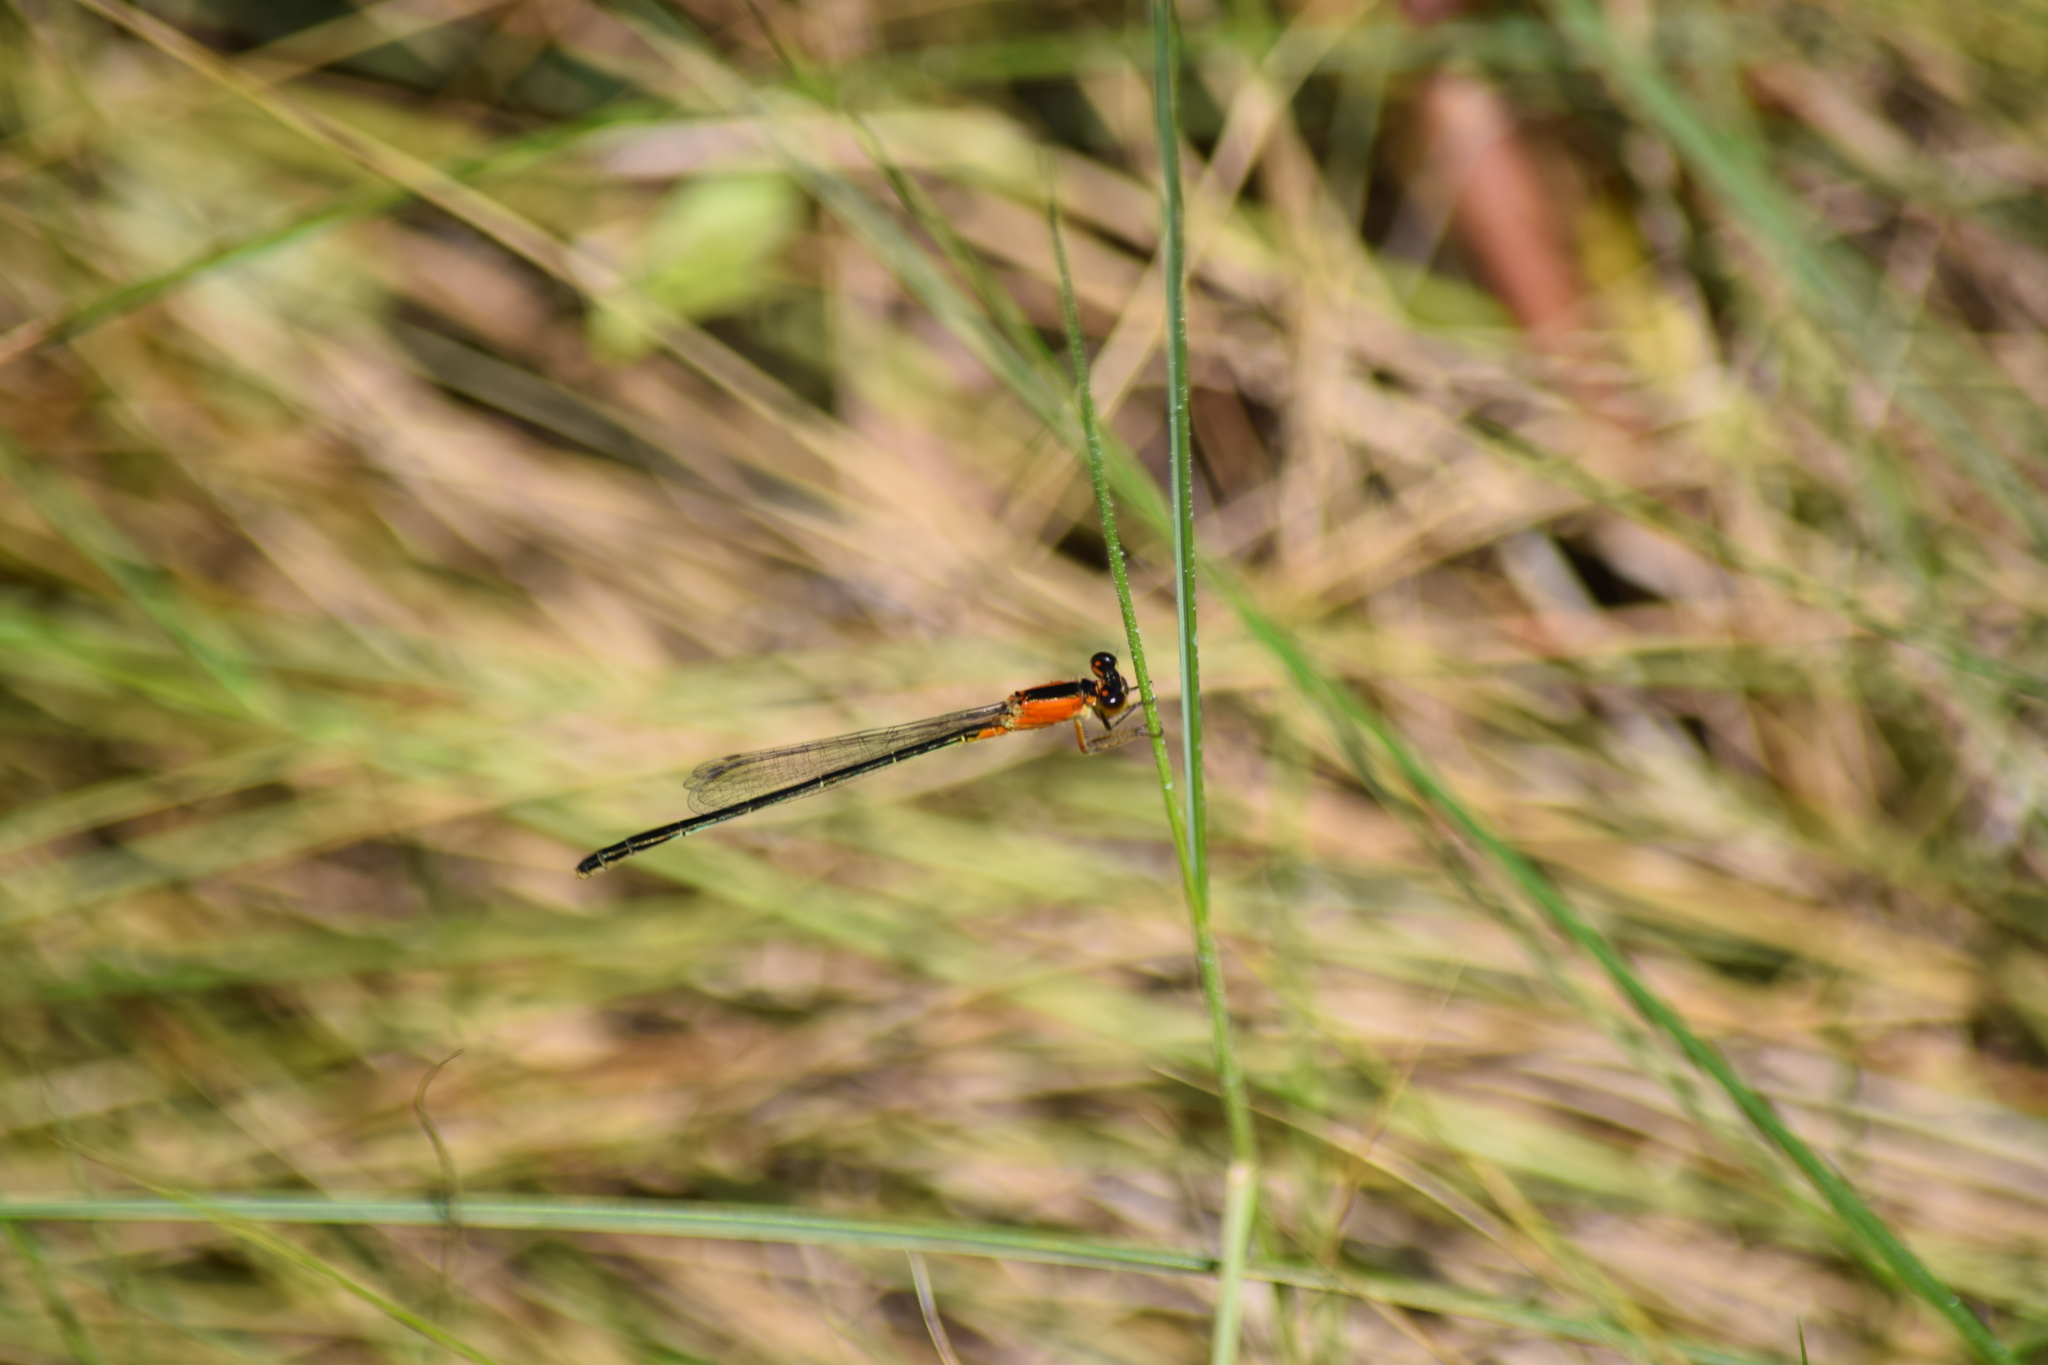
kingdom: Animalia
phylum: Arthropoda
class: Insecta
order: Odonata
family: Coenagrionidae
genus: Ischnura
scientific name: Ischnura ramburii
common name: Rambur's forktail
